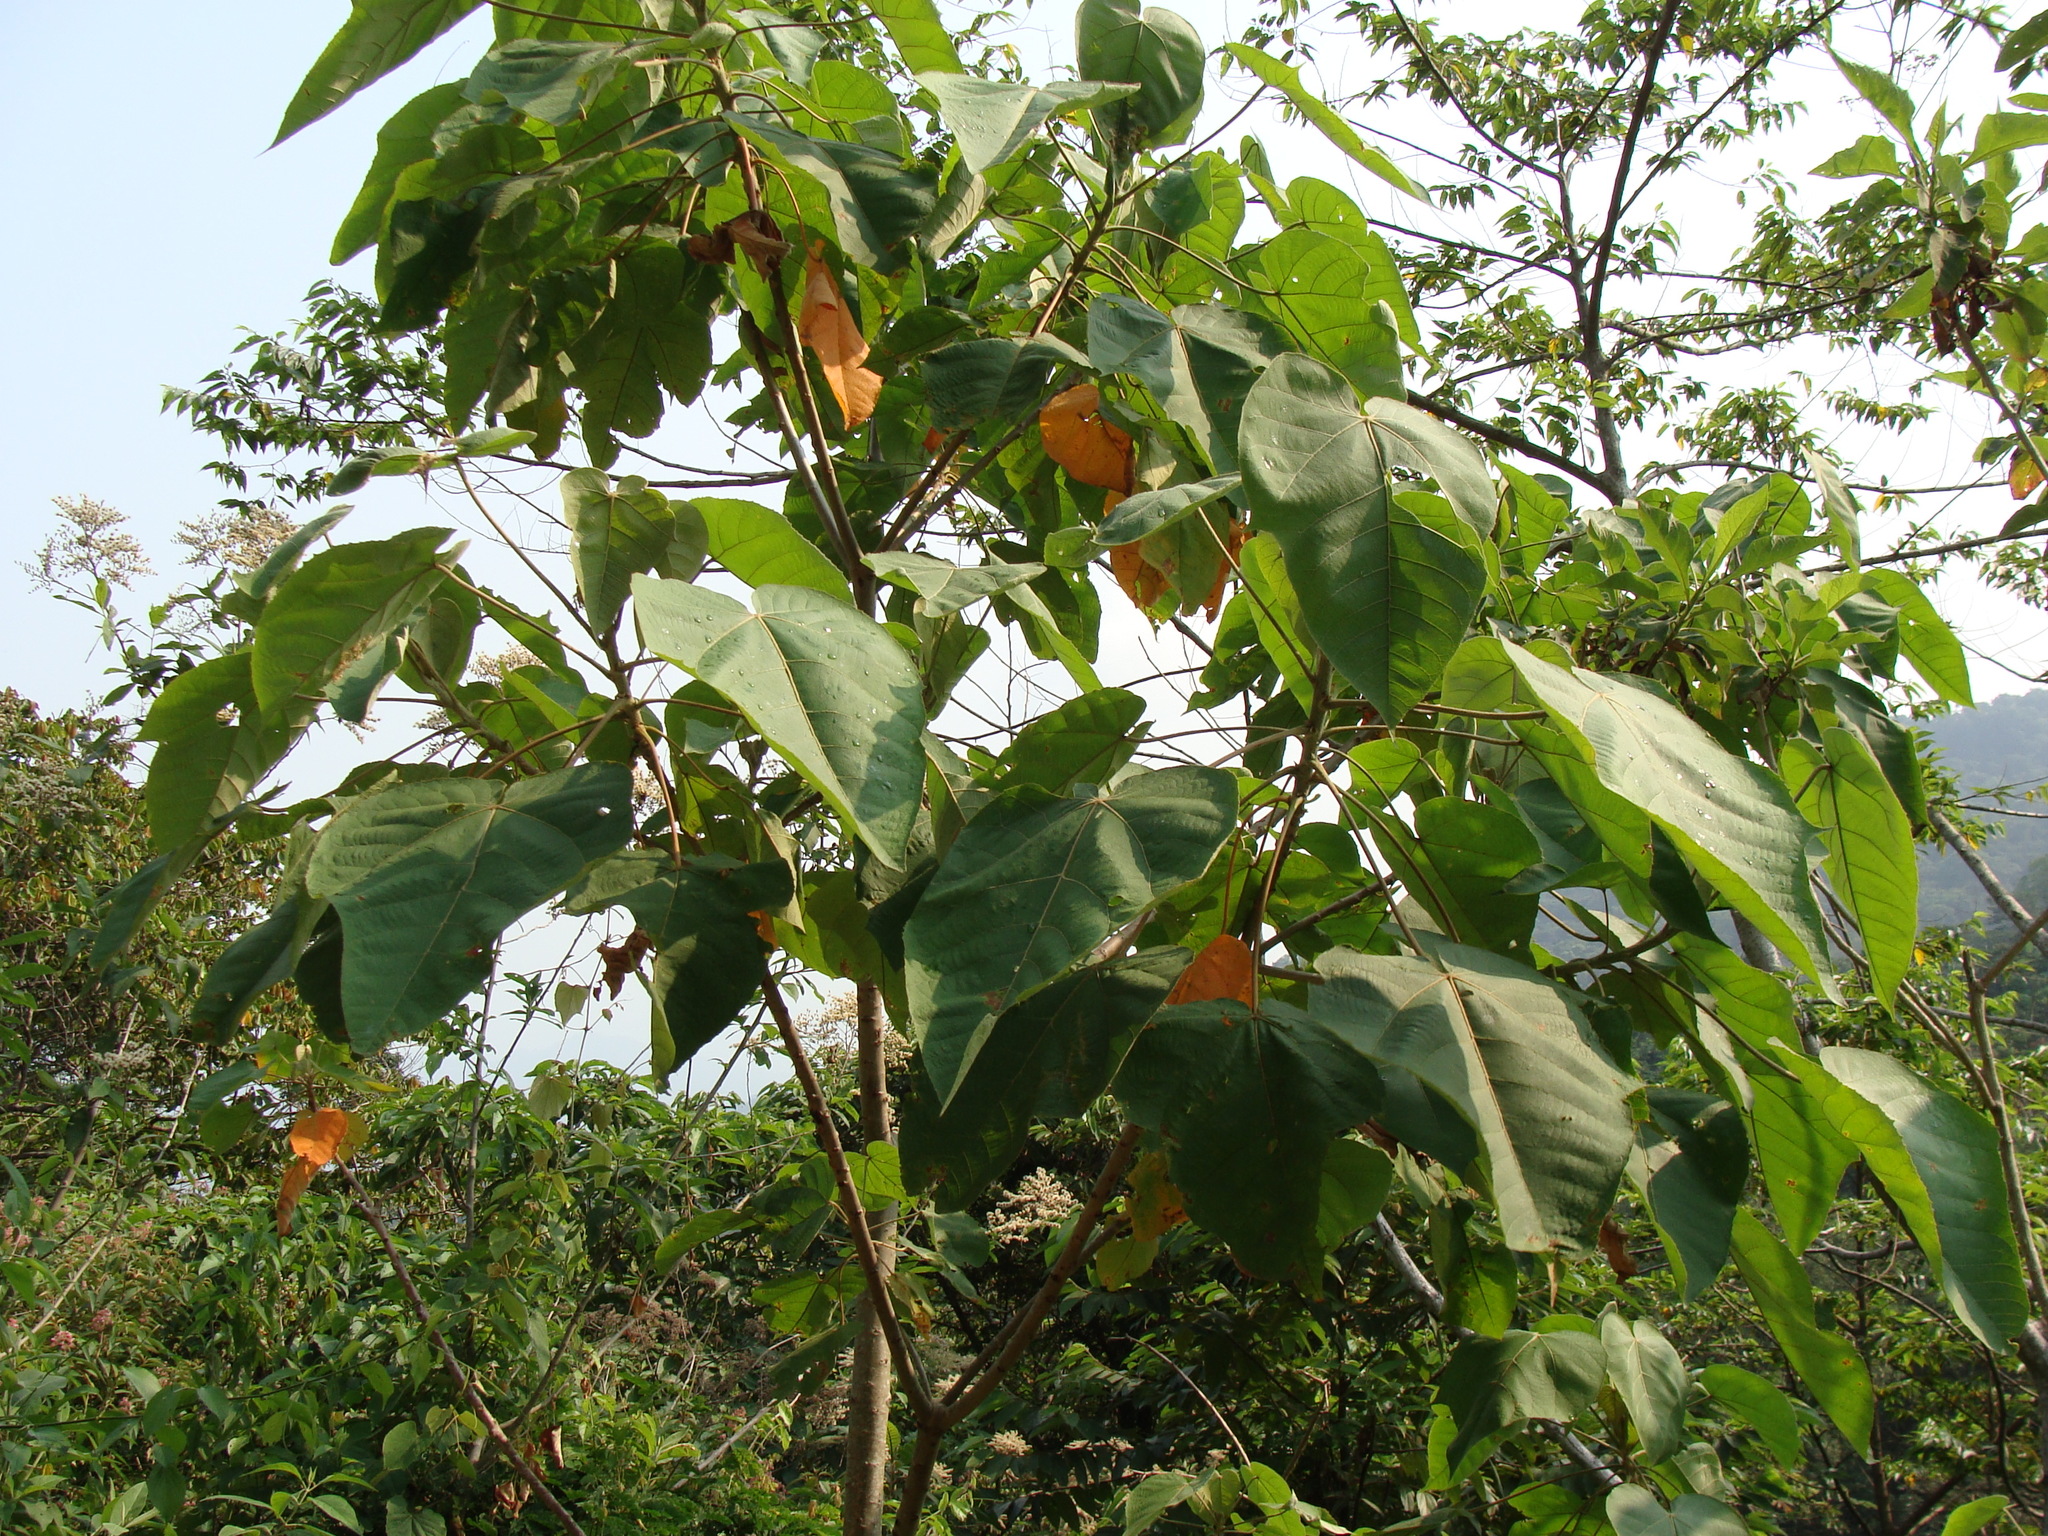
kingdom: Plantae
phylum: Tracheophyta
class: Magnoliopsida
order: Malpighiales
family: Euphorbiaceae
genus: Croton
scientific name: Croton draco
